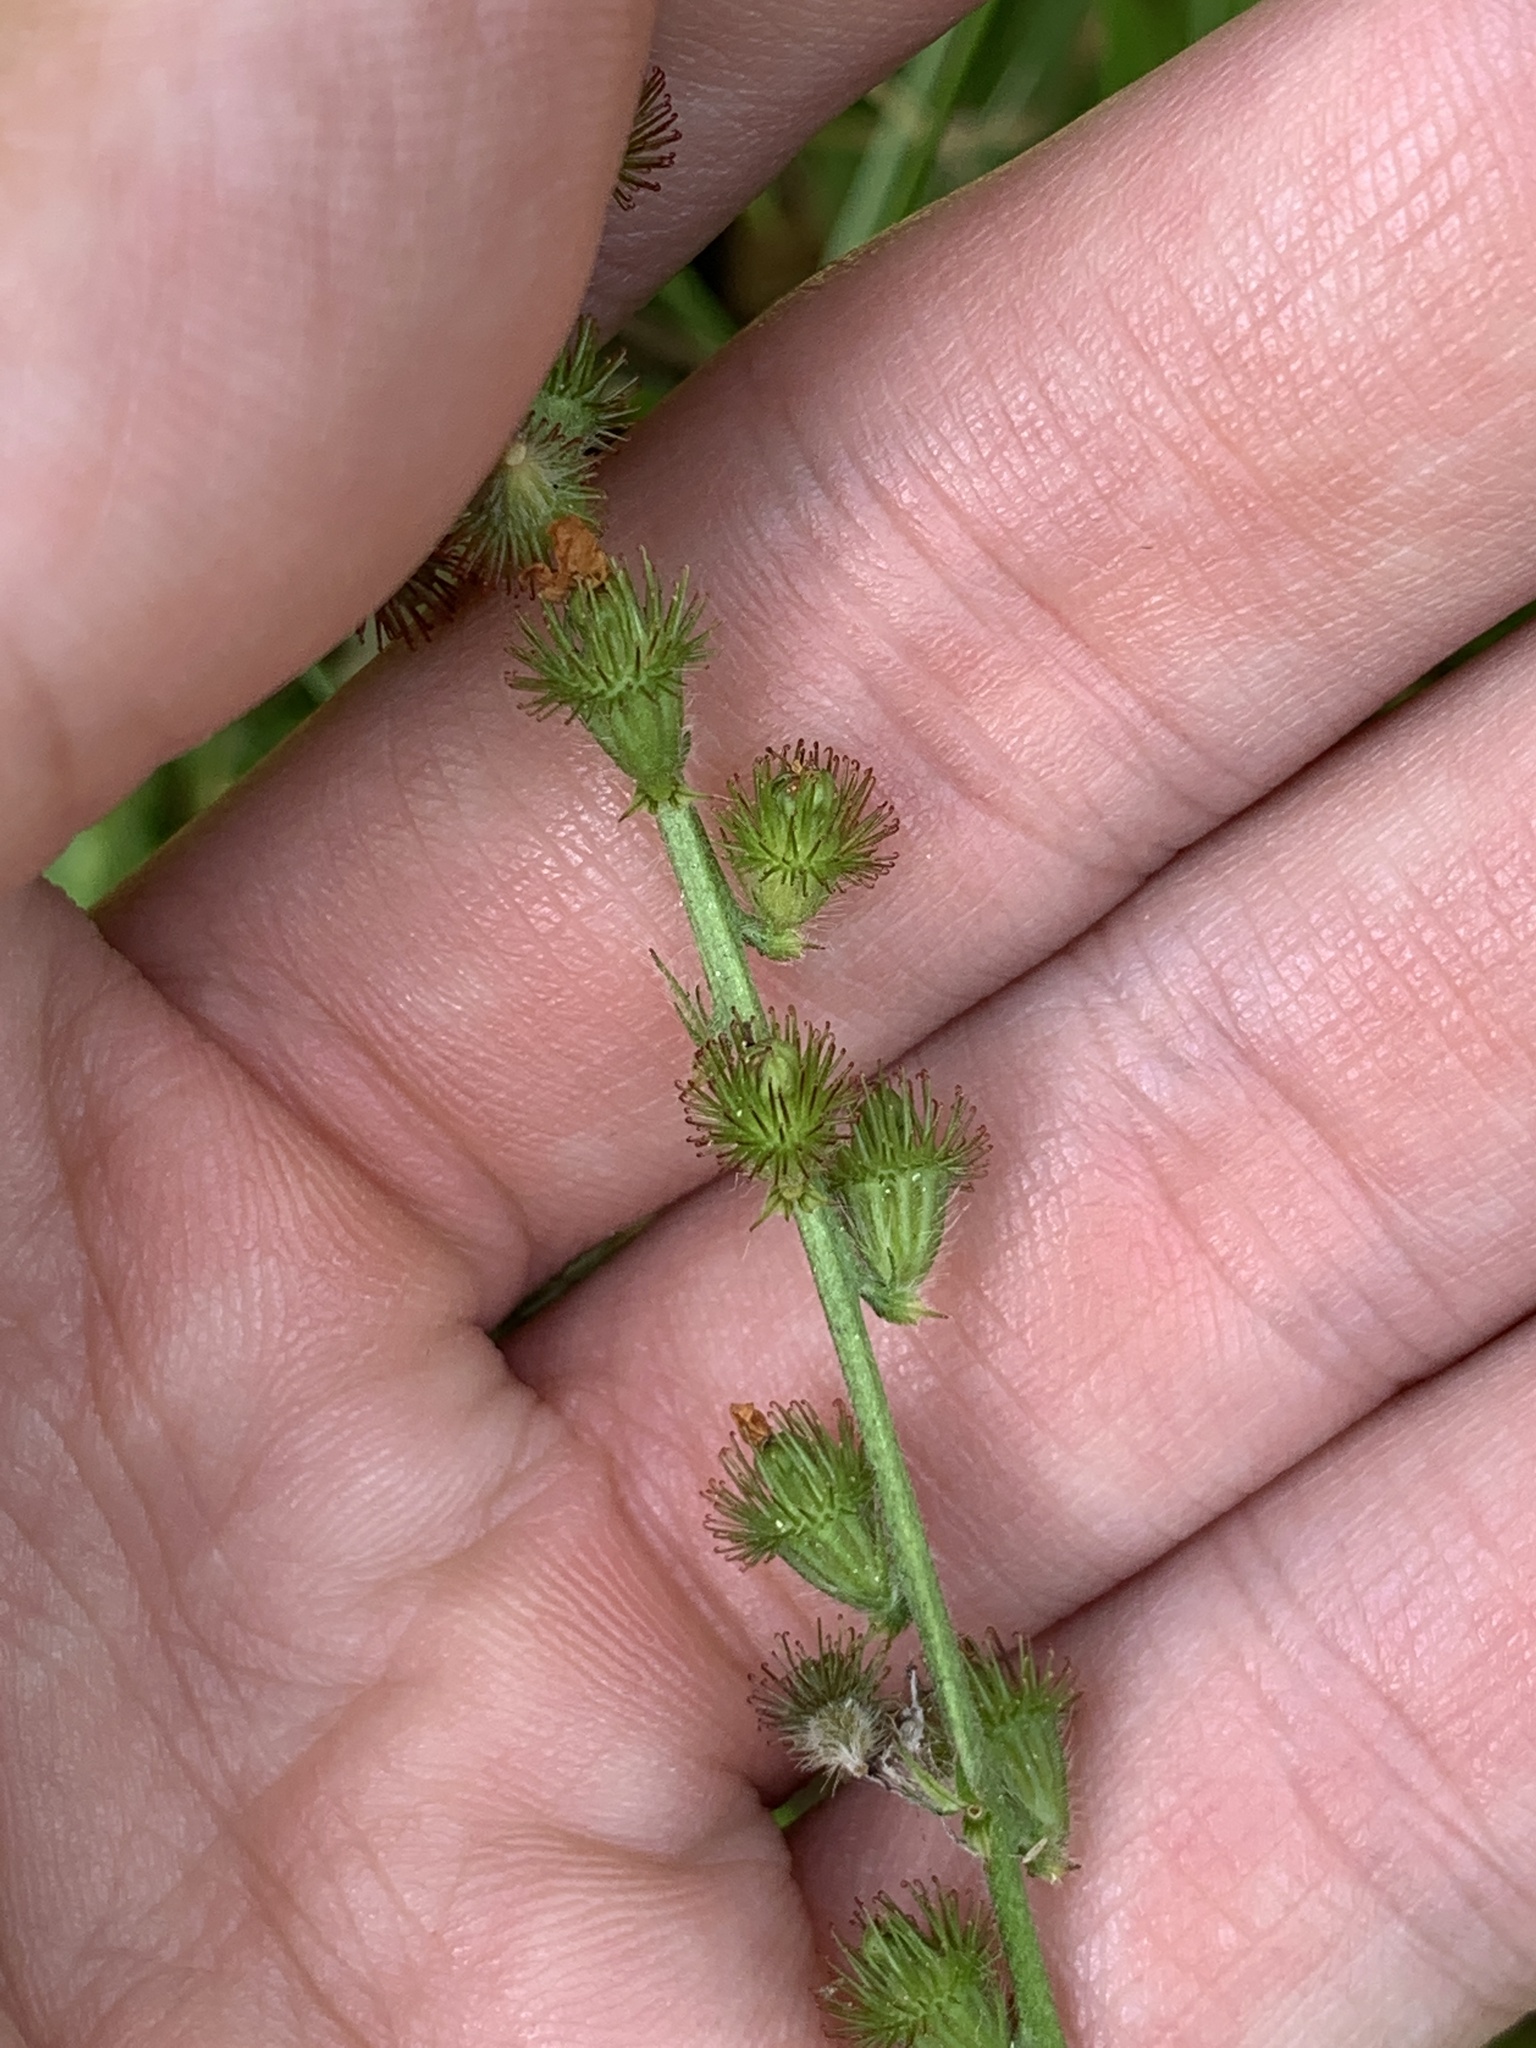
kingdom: Plantae
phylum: Tracheophyta
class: Magnoliopsida
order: Rosales
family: Rosaceae
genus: Agrimonia
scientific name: Agrimonia eupatoria
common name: Agrimony
